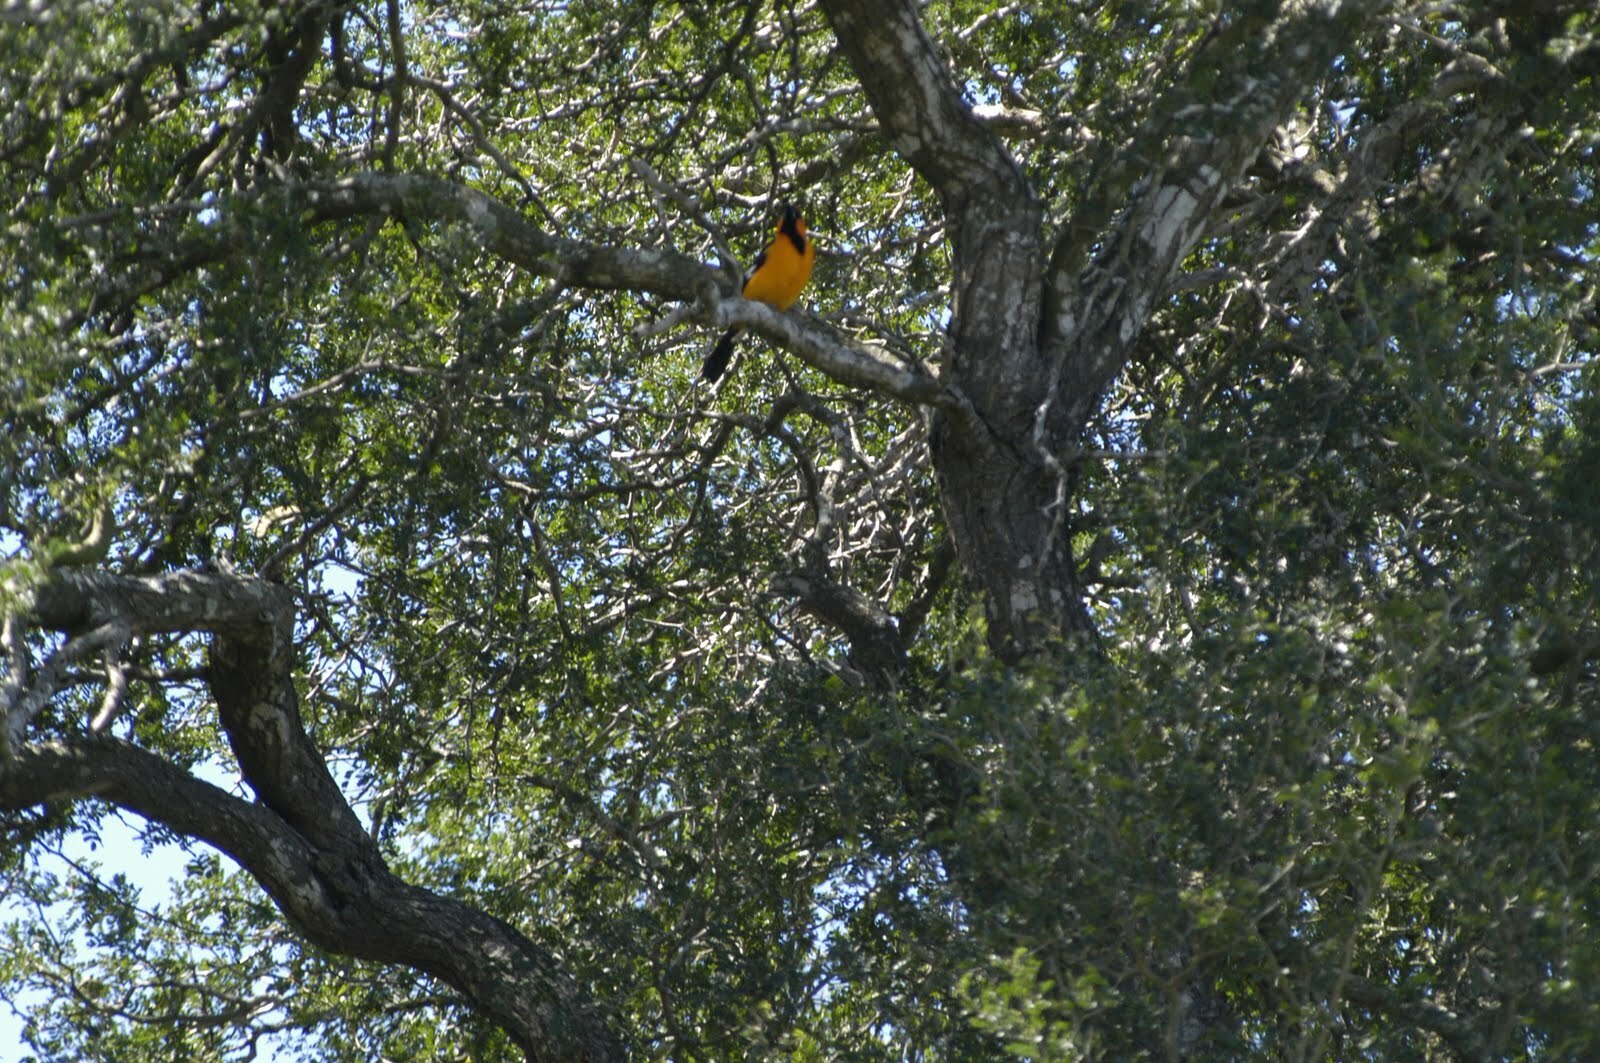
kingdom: Animalia
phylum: Chordata
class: Aves
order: Passeriformes
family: Icteridae
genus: Icterus
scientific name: Icterus gularis
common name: Altamira oriole
